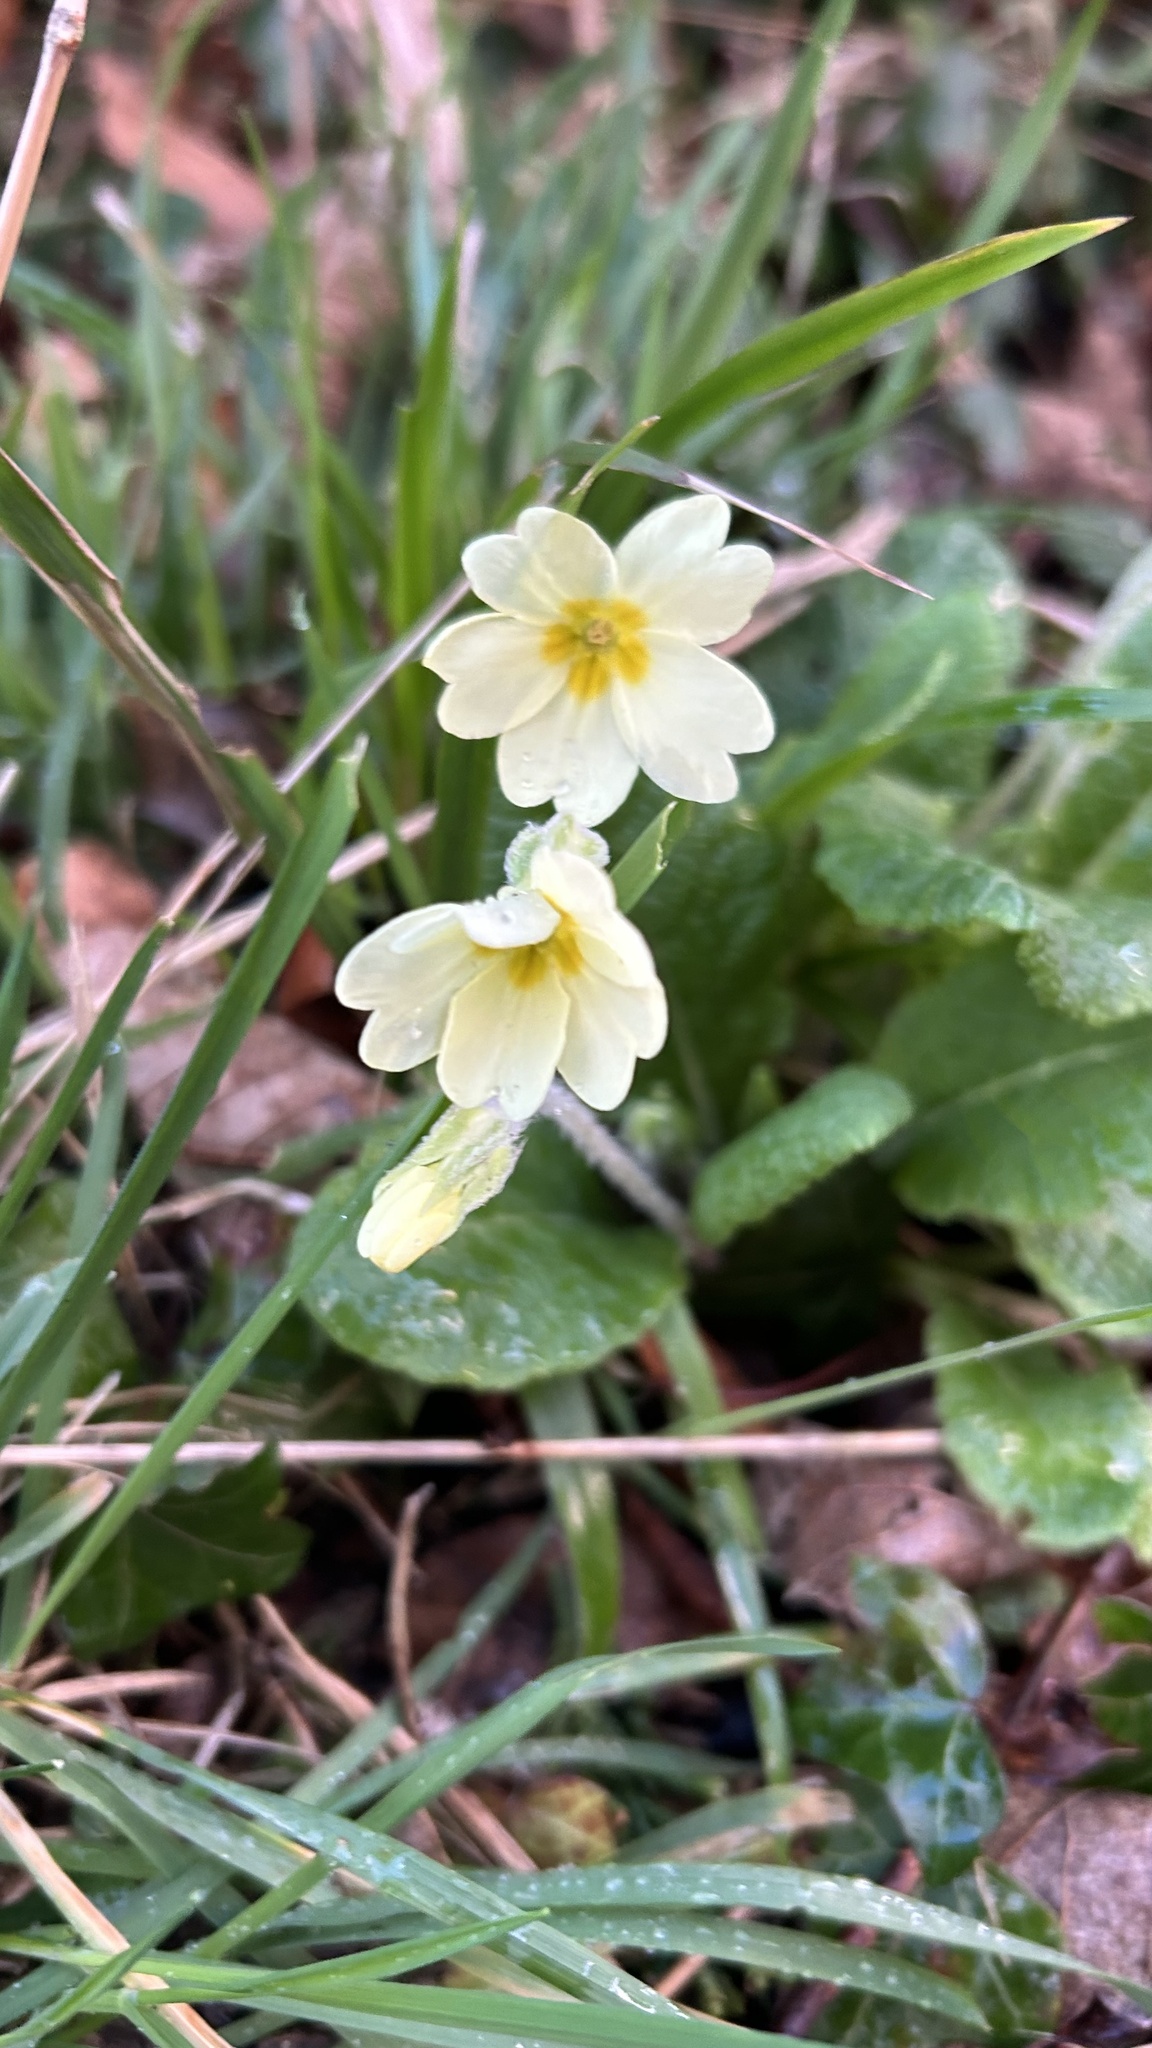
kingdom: Plantae
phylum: Tracheophyta
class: Magnoliopsida
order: Ericales
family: Primulaceae
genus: Primula
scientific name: Primula vulgaris
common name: Primrose
